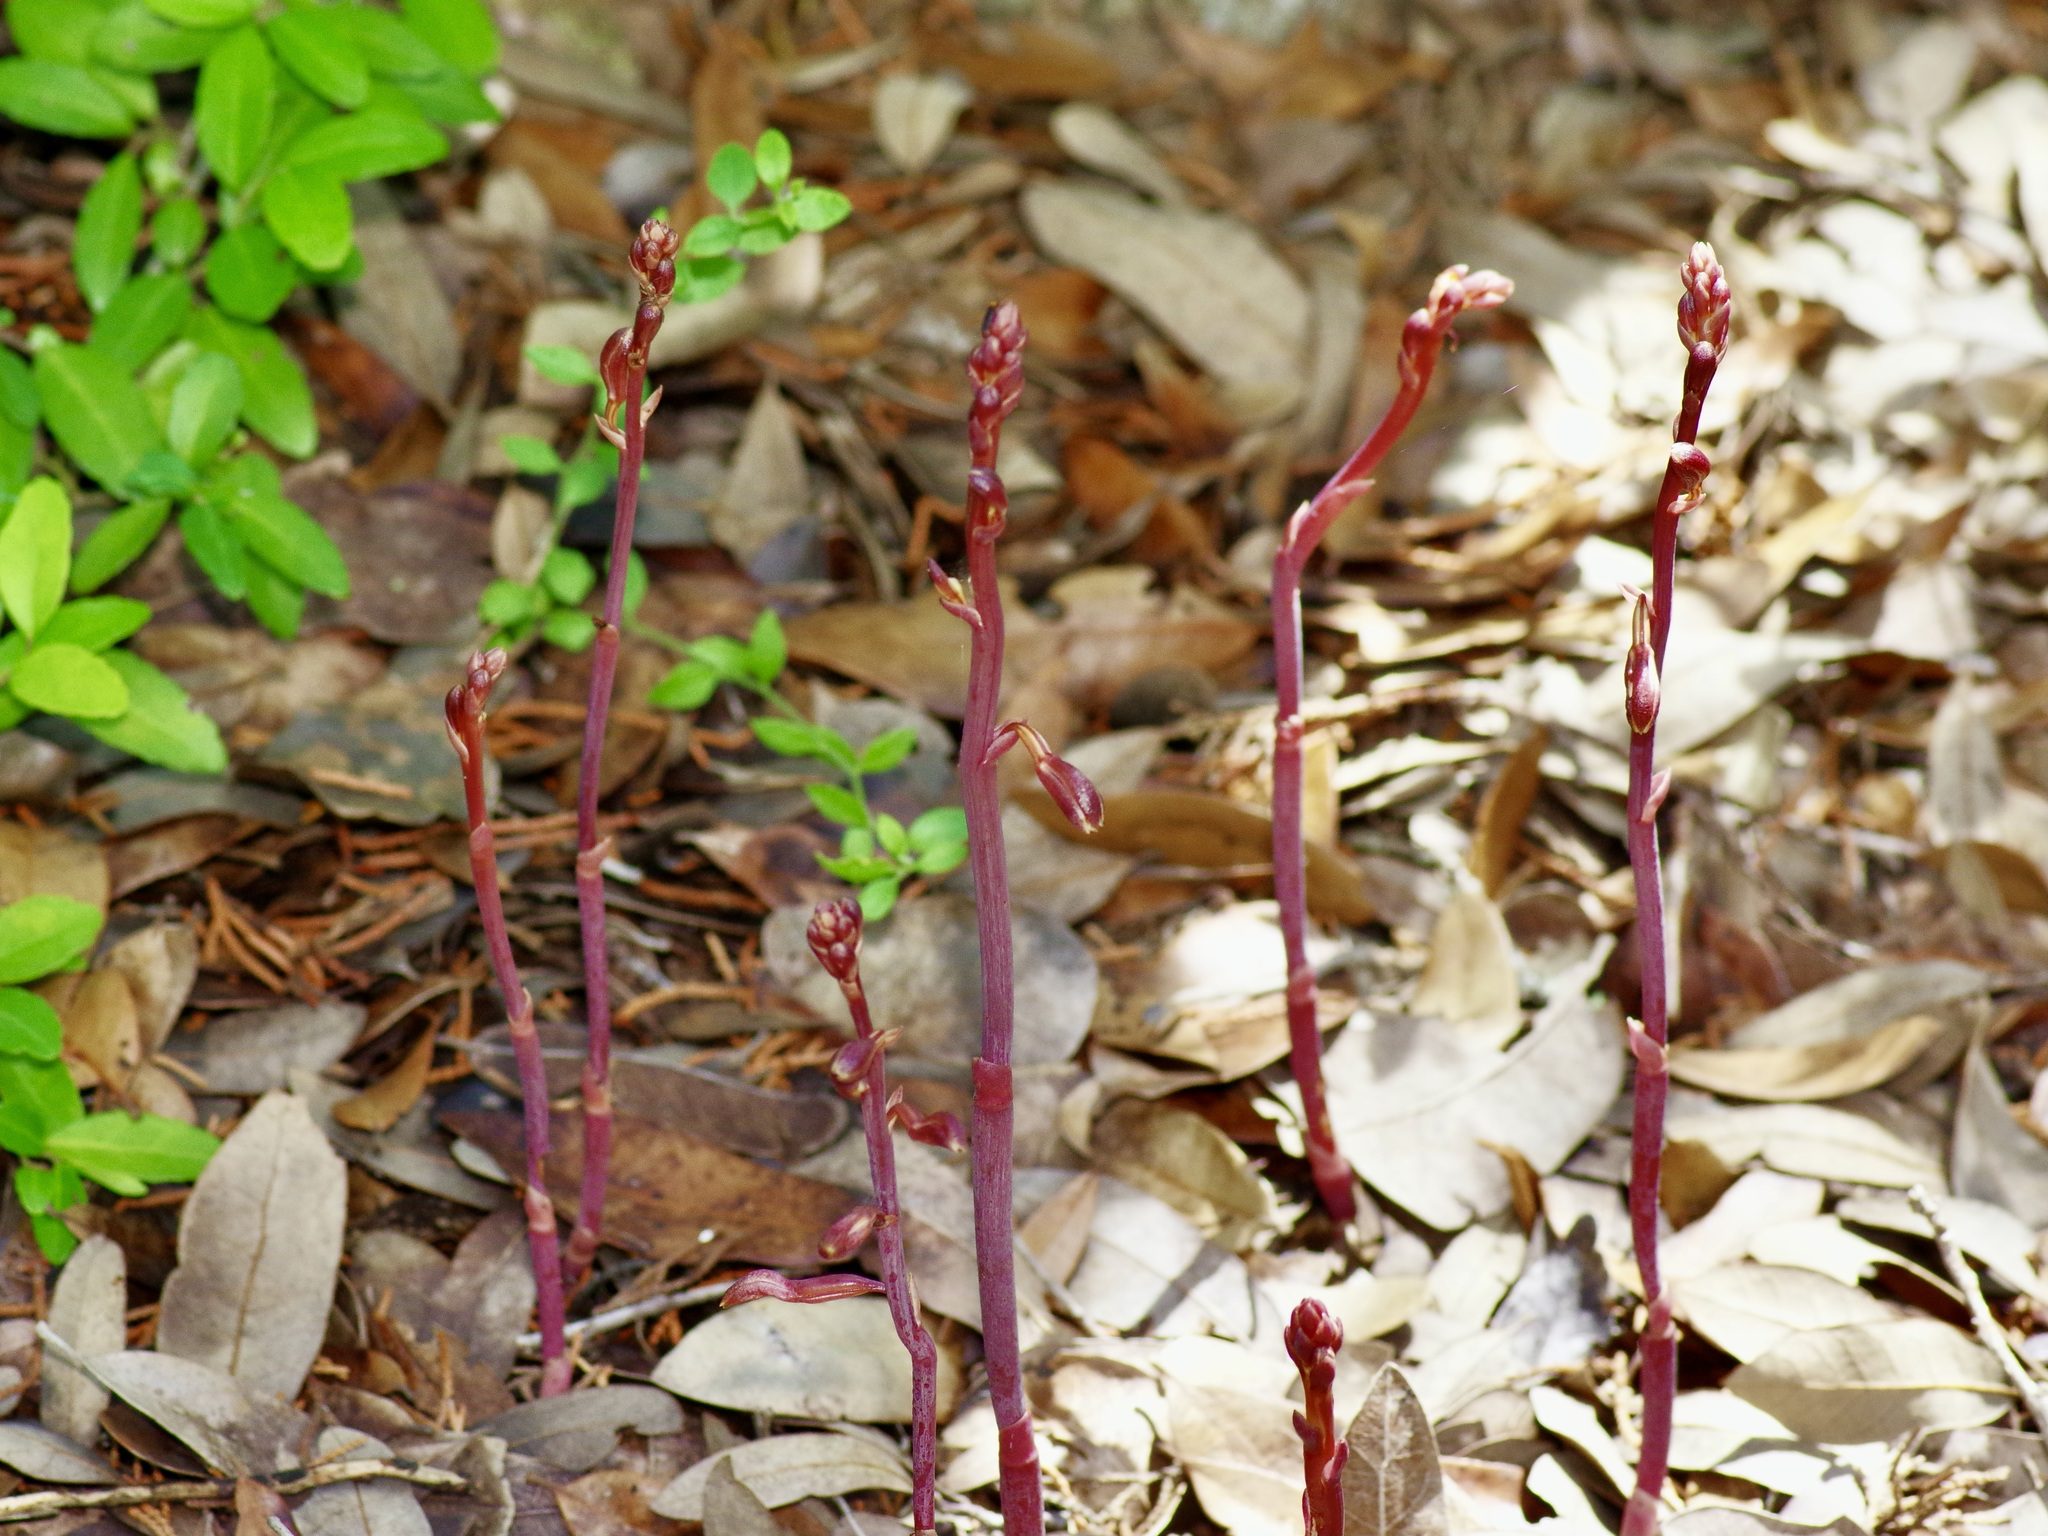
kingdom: Plantae
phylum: Tracheophyta
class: Liliopsida
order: Asparagales
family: Orchidaceae
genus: Bletia
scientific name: Bletia nitida
